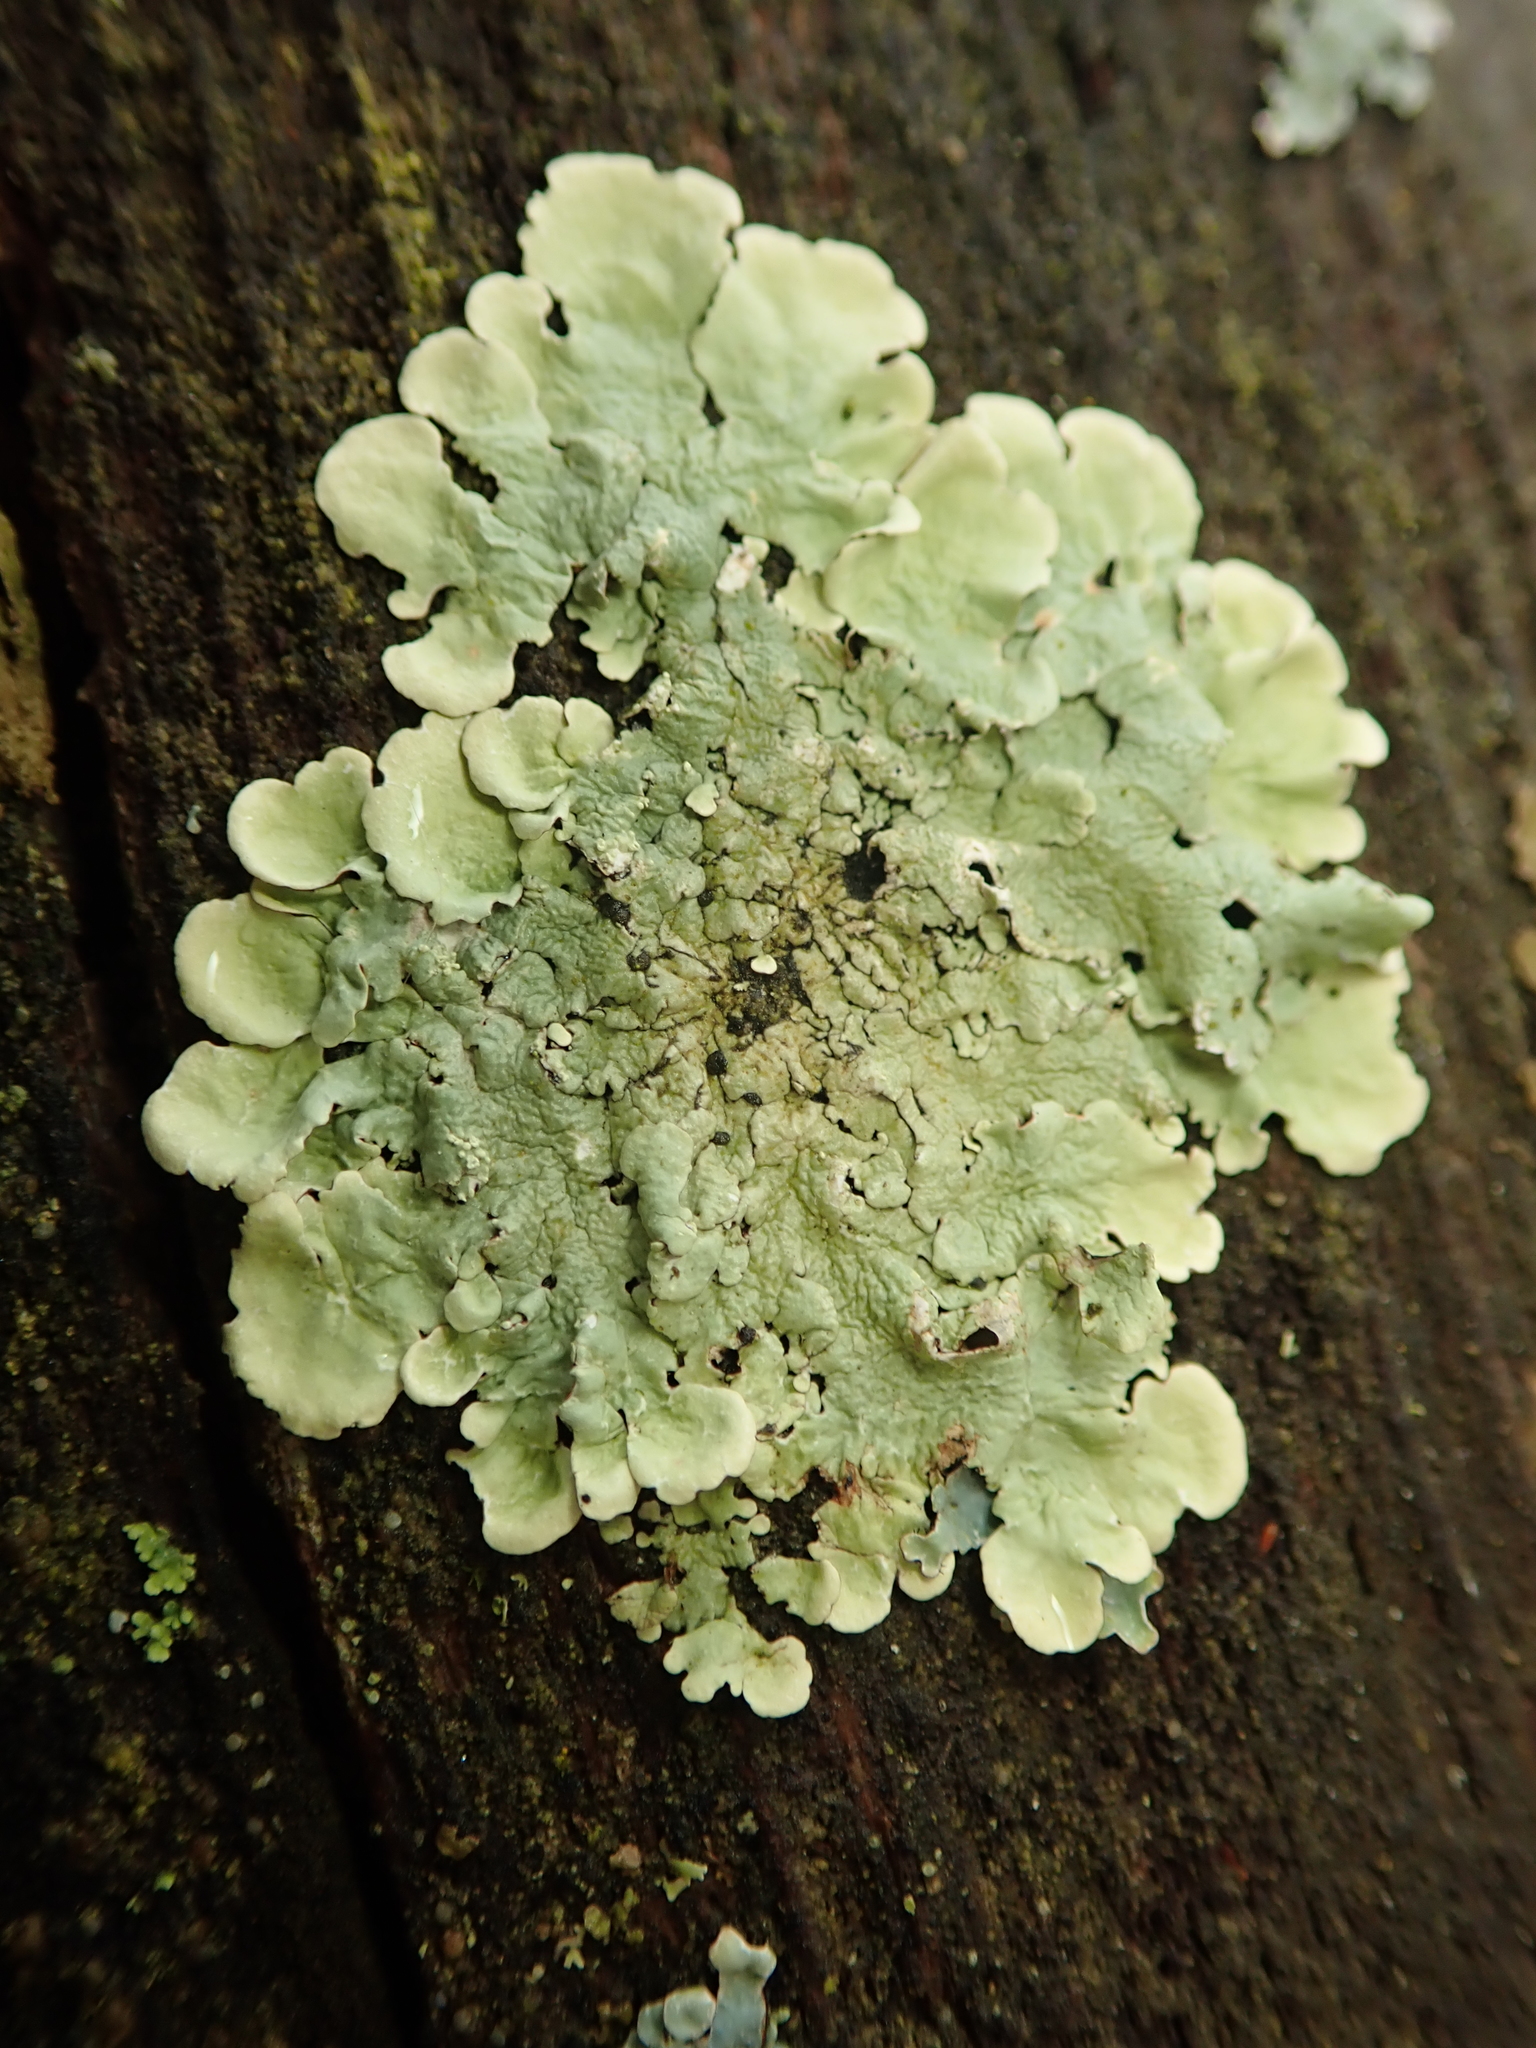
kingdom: Fungi
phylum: Ascomycota
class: Lecanoromycetes
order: Lecanorales
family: Parmeliaceae
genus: Flavoparmelia
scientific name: Flavoparmelia caperata
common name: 40-mile per hour lichen
